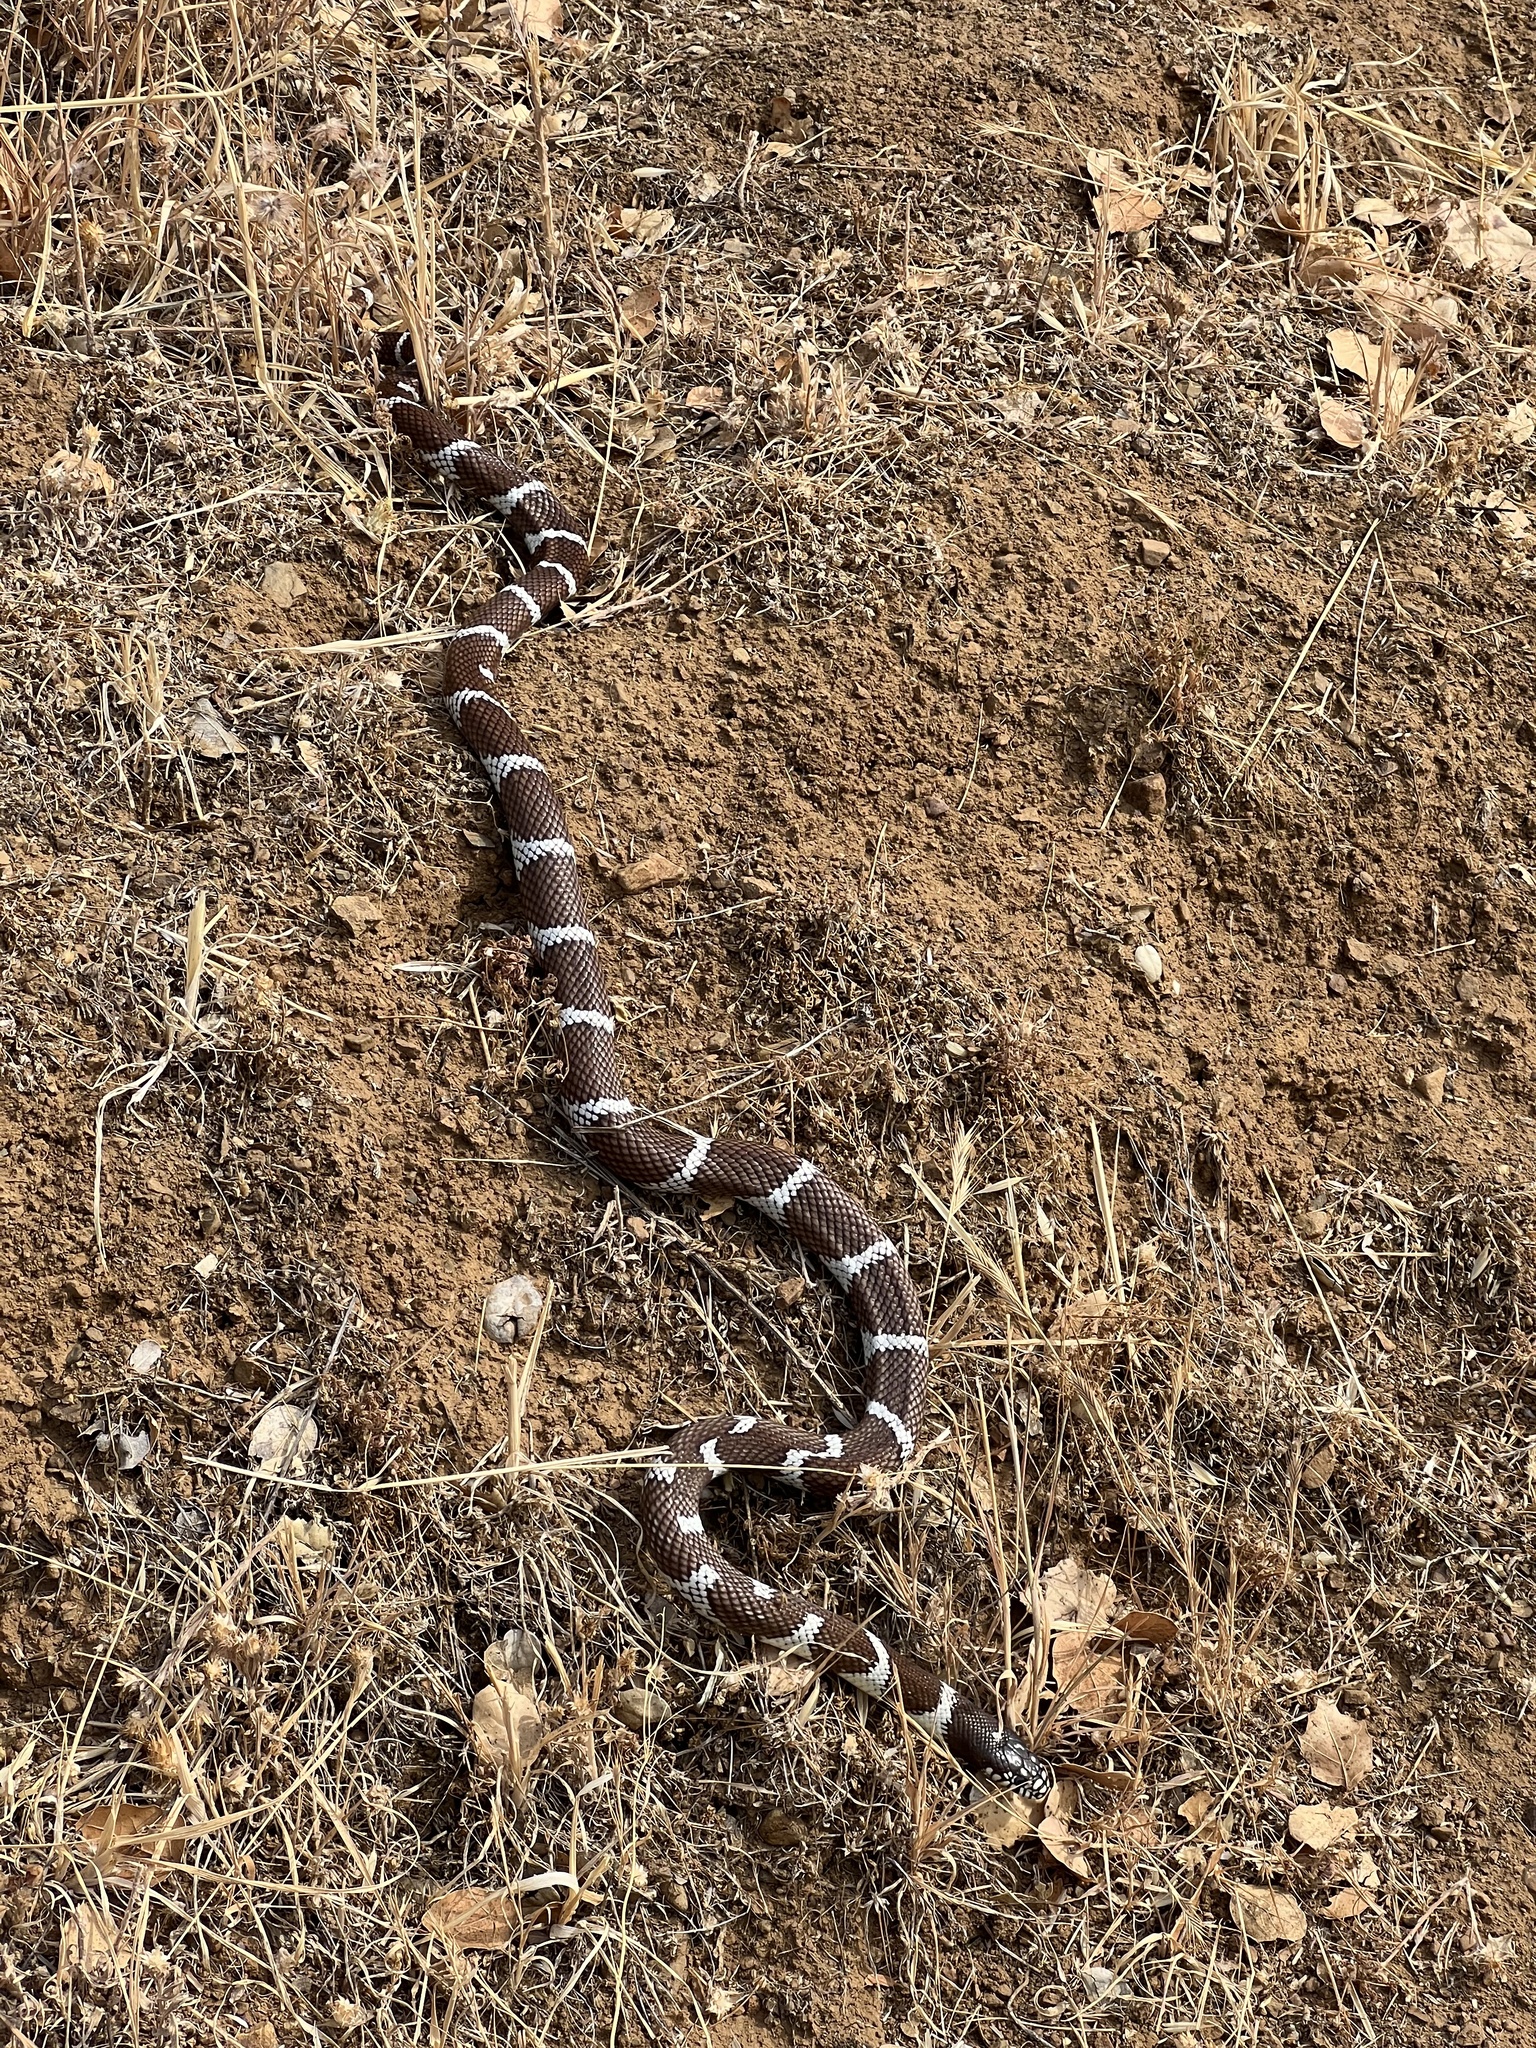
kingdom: Animalia
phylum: Chordata
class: Squamata
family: Colubridae
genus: Lampropeltis
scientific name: Lampropeltis californiae
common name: California kingsnake
